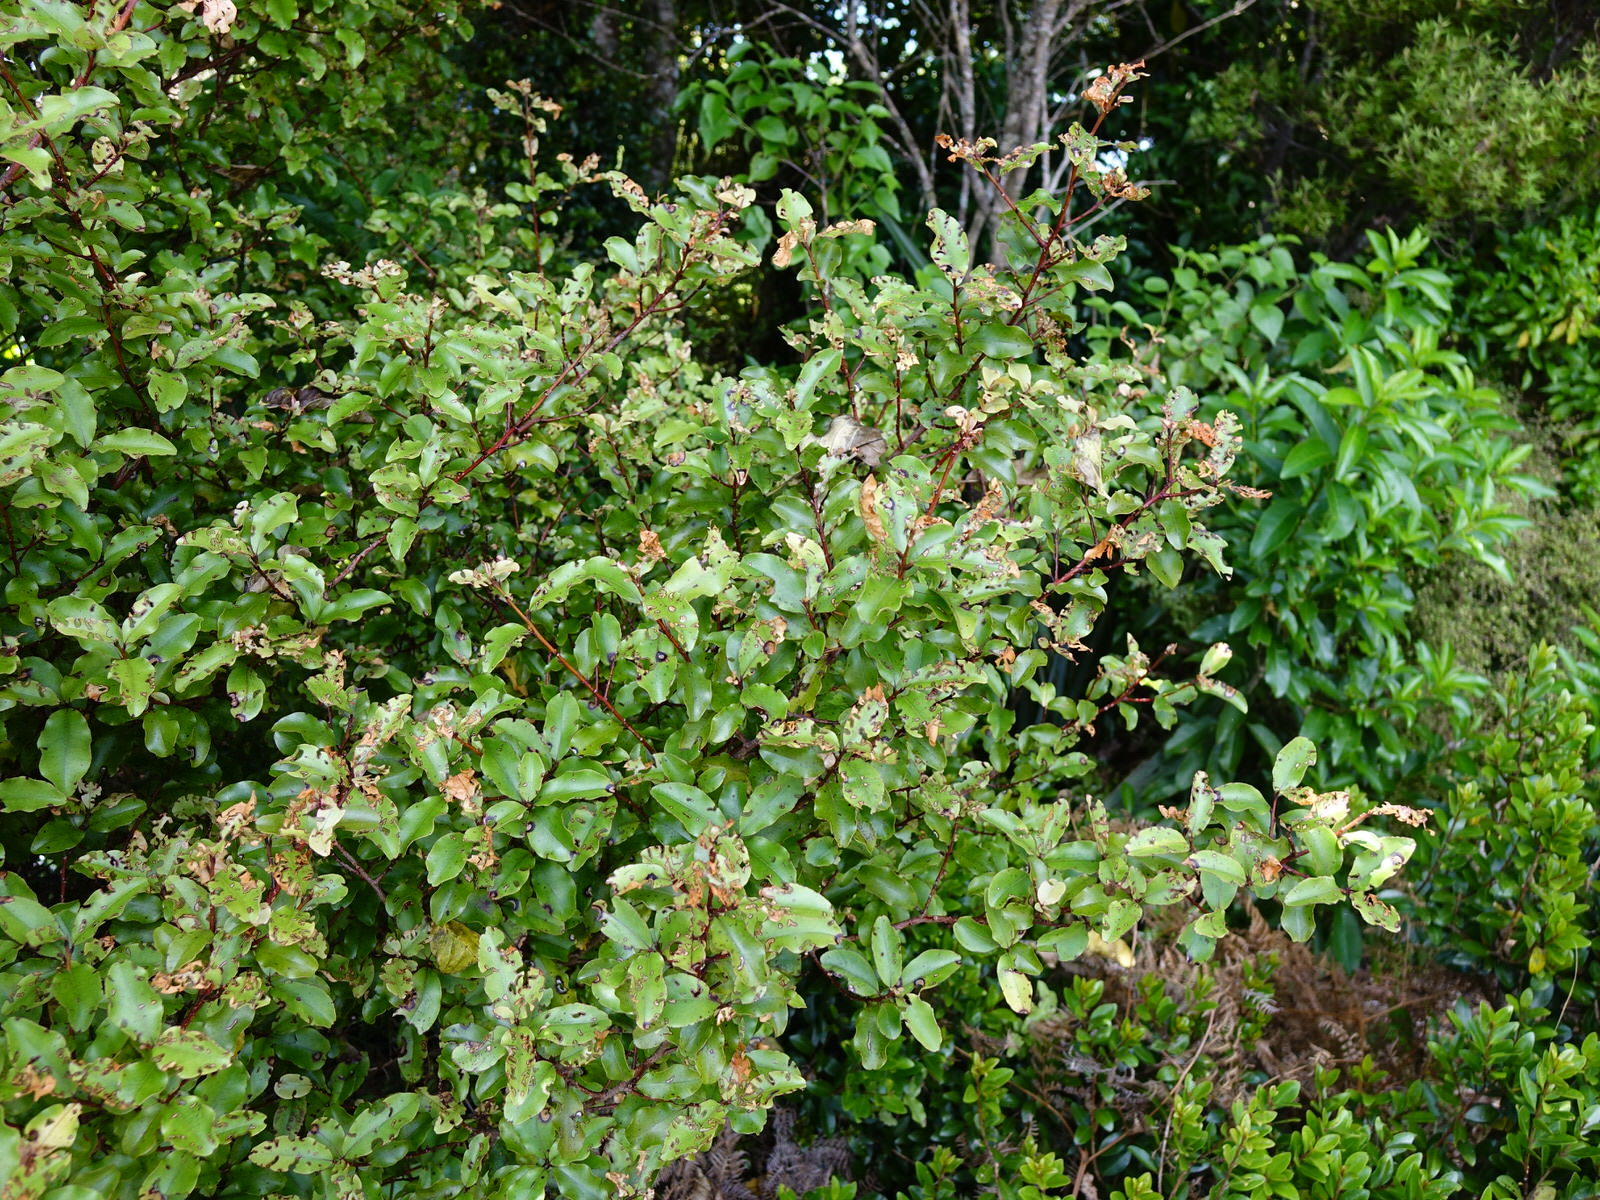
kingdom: Plantae
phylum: Tracheophyta
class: Magnoliopsida
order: Ericales
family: Primulaceae
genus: Myrsine
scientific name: Myrsine australis
